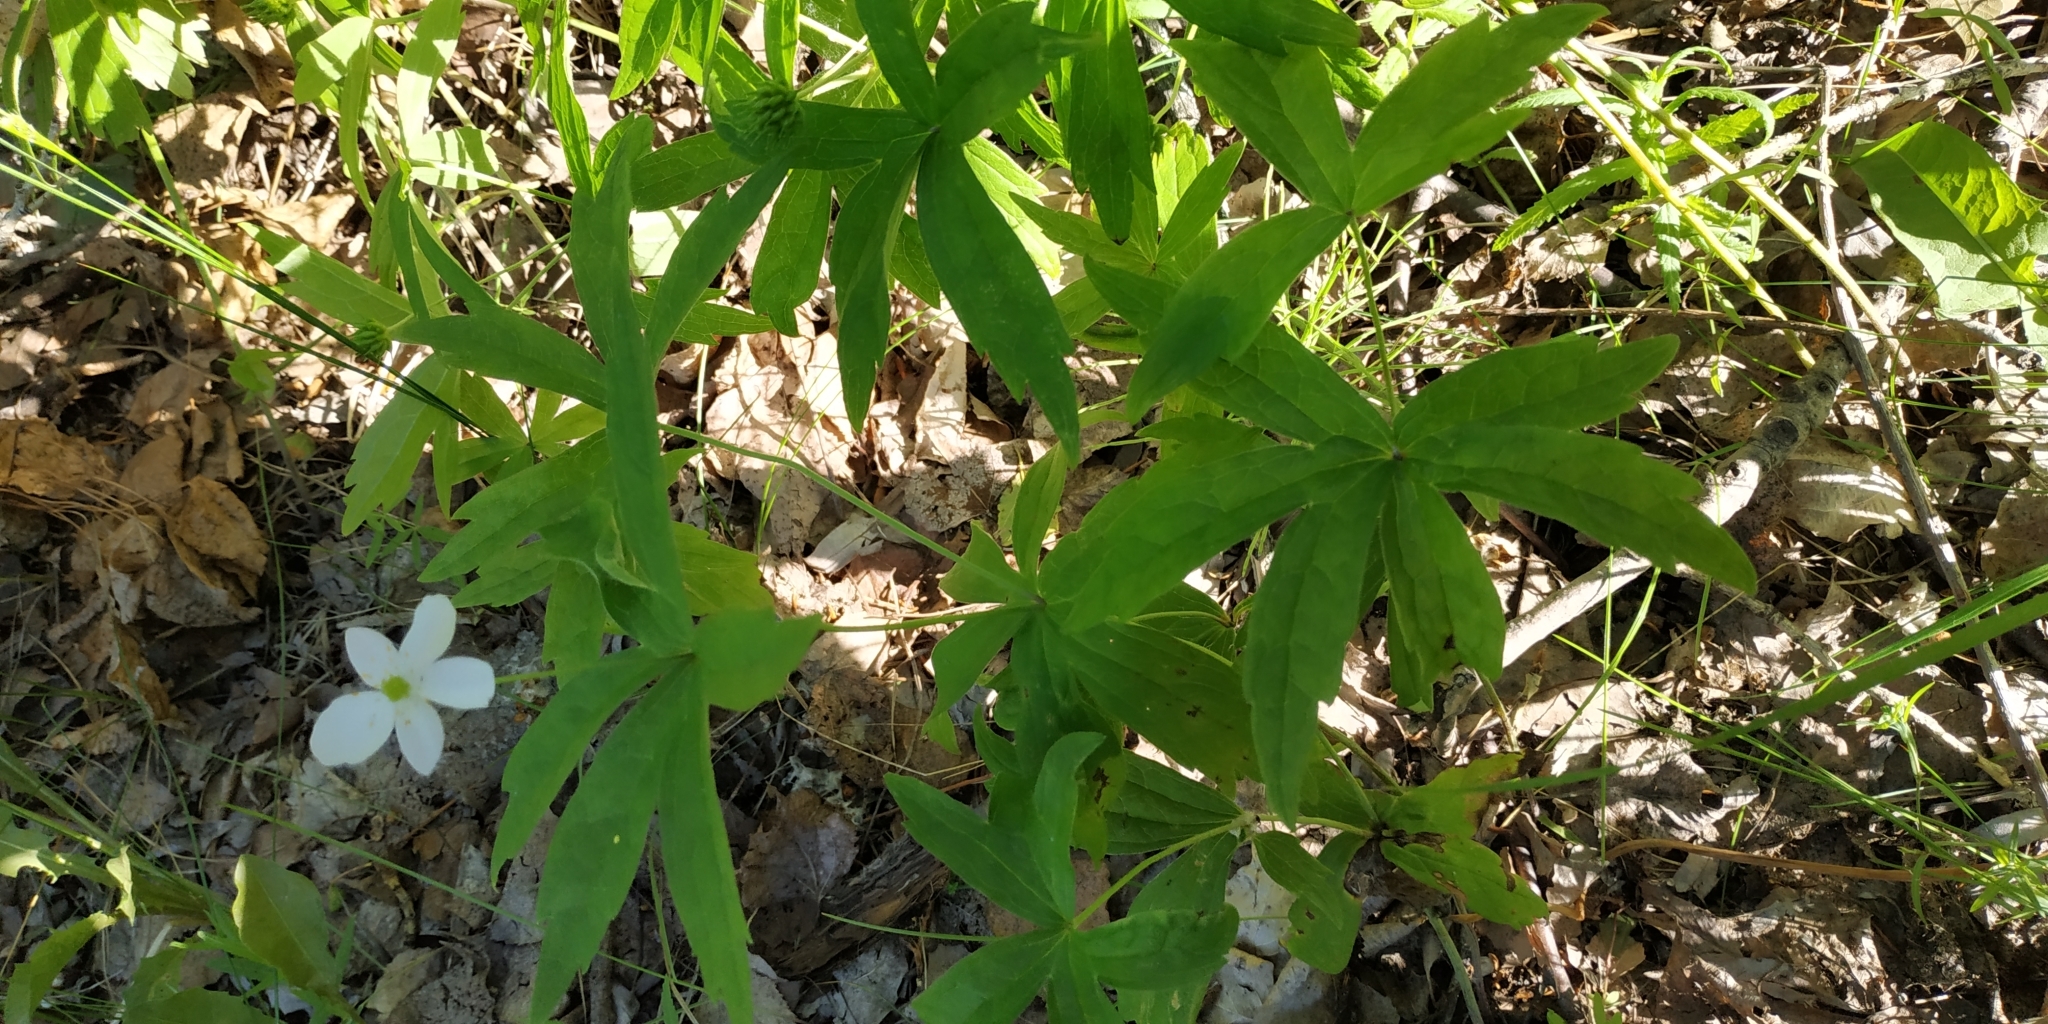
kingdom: Plantae
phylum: Tracheophyta
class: Magnoliopsida
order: Ranunculales
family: Ranunculaceae
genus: Anemonastrum
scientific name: Anemonastrum dichotomum
